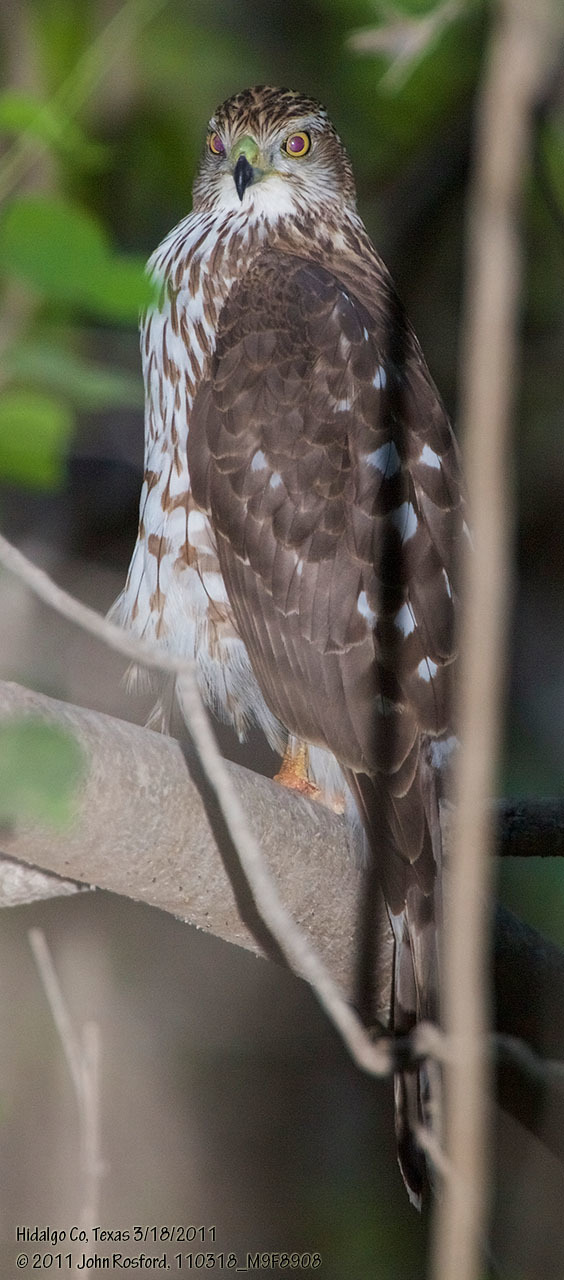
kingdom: Animalia
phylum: Chordata
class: Aves
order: Accipitriformes
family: Accipitridae
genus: Accipiter
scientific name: Accipiter cooperii
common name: Cooper's hawk
